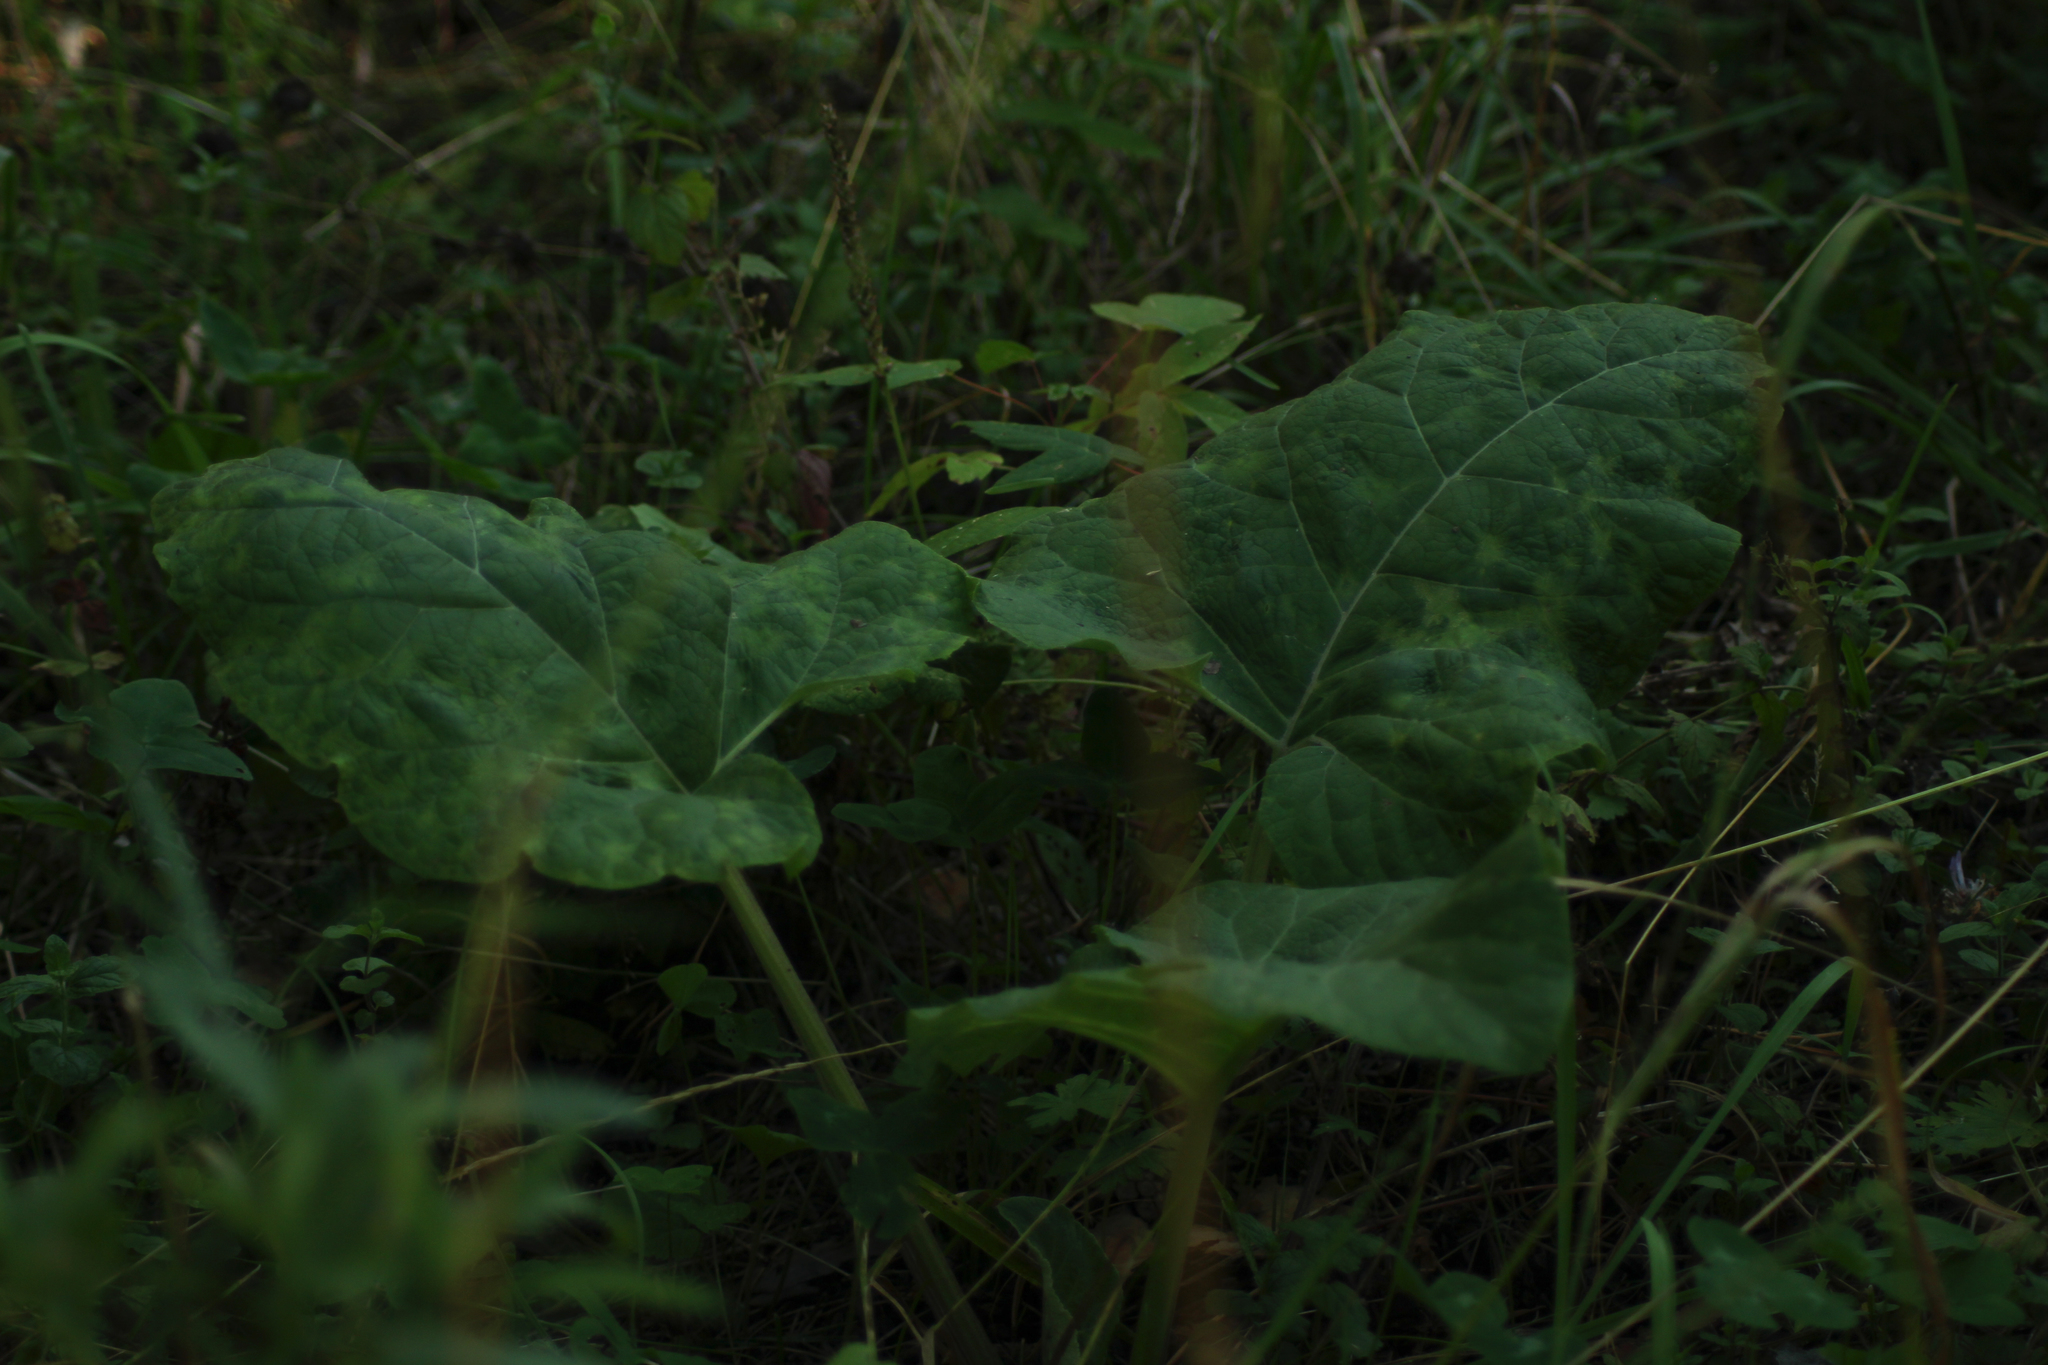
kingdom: Plantae
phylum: Tracheophyta
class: Magnoliopsida
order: Asterales
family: Asteraceae
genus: Arctium
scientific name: Arctium tomentosum
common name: Woolly burdock
